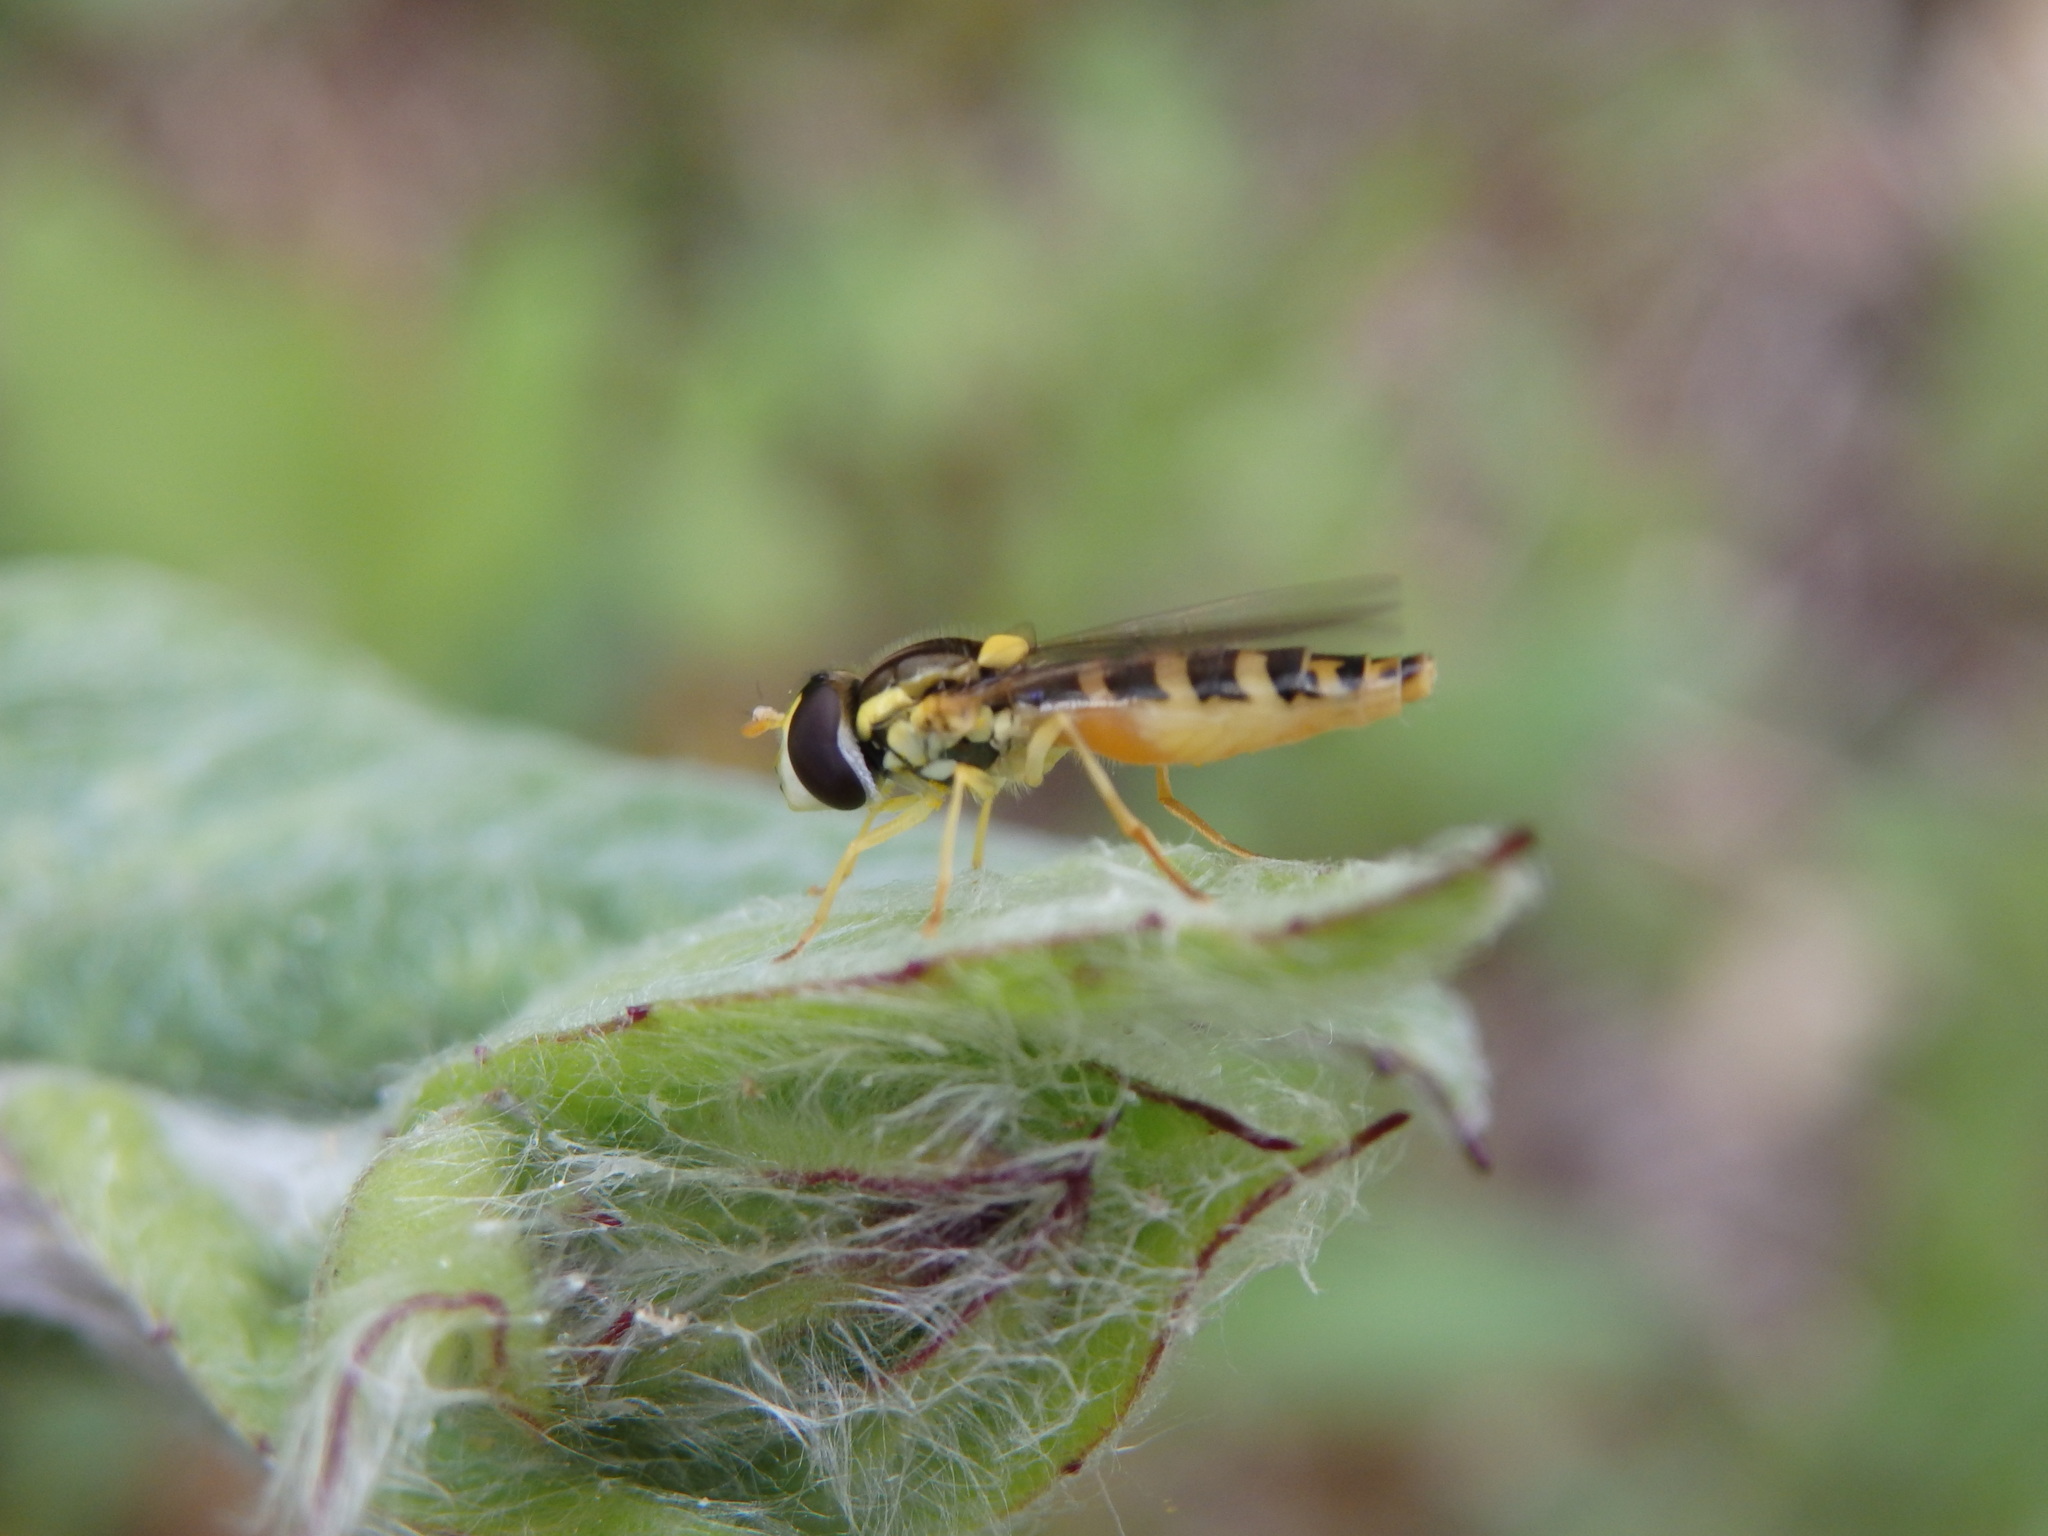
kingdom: Animalia
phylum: Arthropoda
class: Insecta
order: Diptera
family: Syrphidae
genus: Sphaerophoria
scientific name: Sphaerophoria
